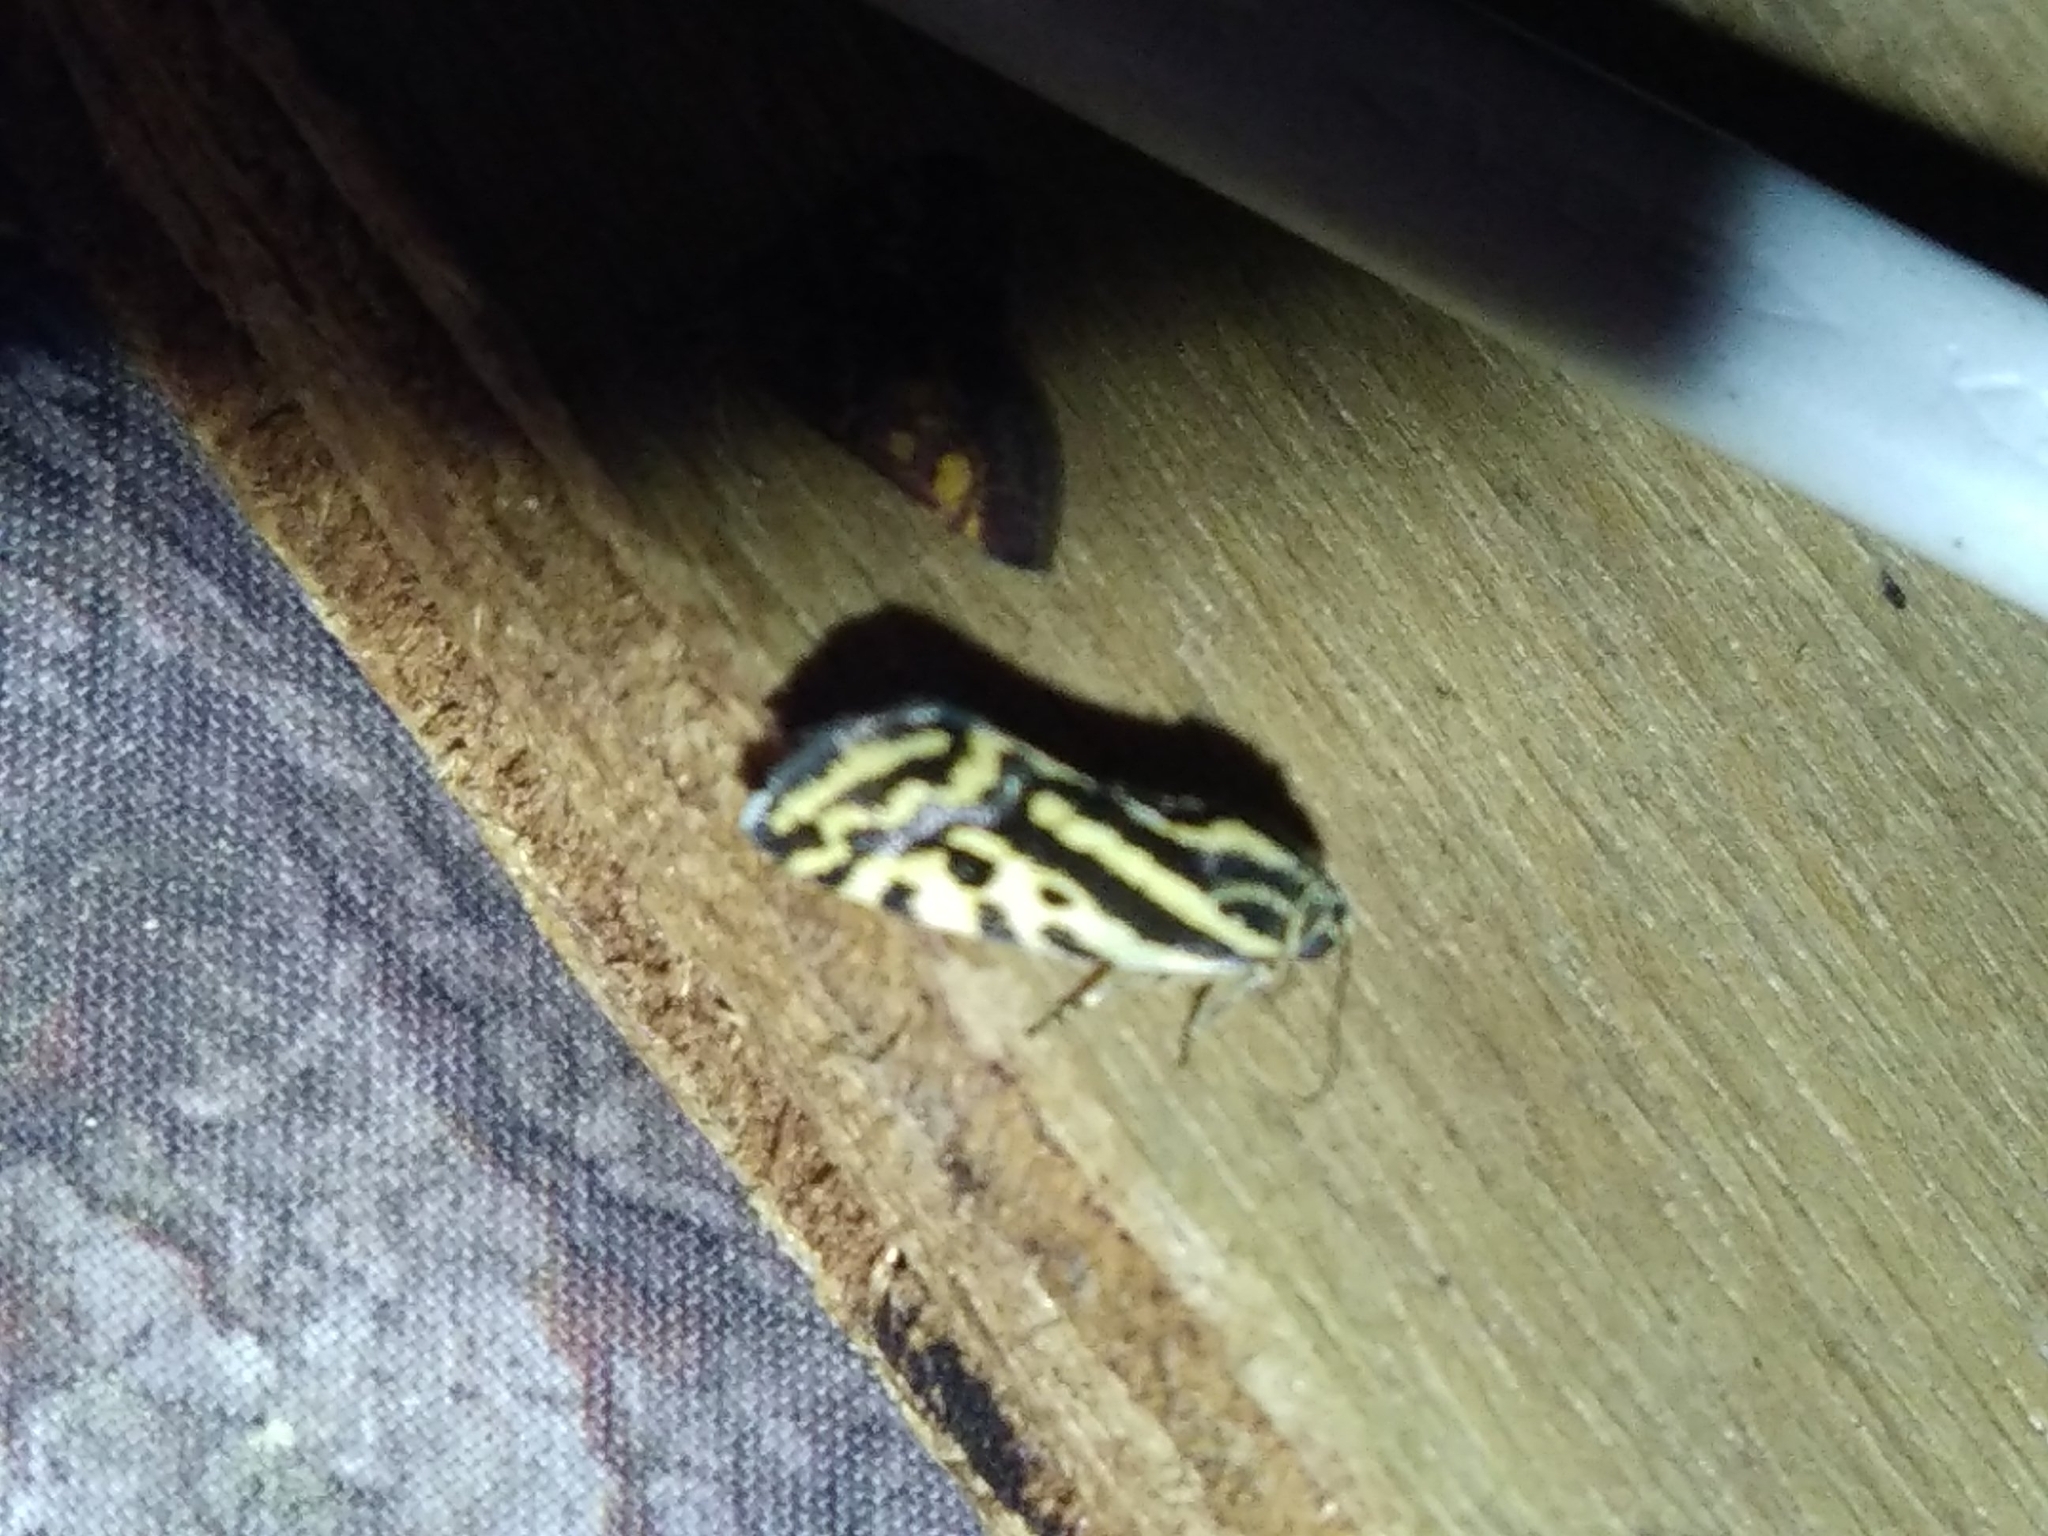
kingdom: Animalia
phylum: Arthropoda
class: Insecta
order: Lepidoptera
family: Noctuidae
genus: Acontia
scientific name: Acontia trabealis
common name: Spotted sulphur
